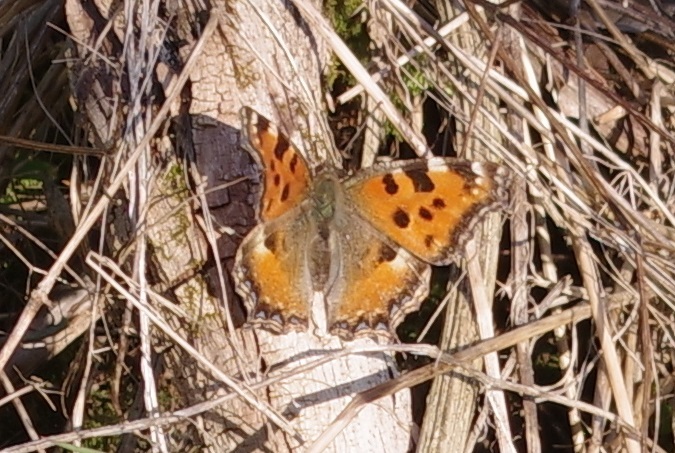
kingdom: Animalia
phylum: Arthropoda
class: Insecta
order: Lepidoptera
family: Nymphalidae
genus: Nymphalis
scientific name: Nymphalis polychloros
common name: Large tortoiseshell
